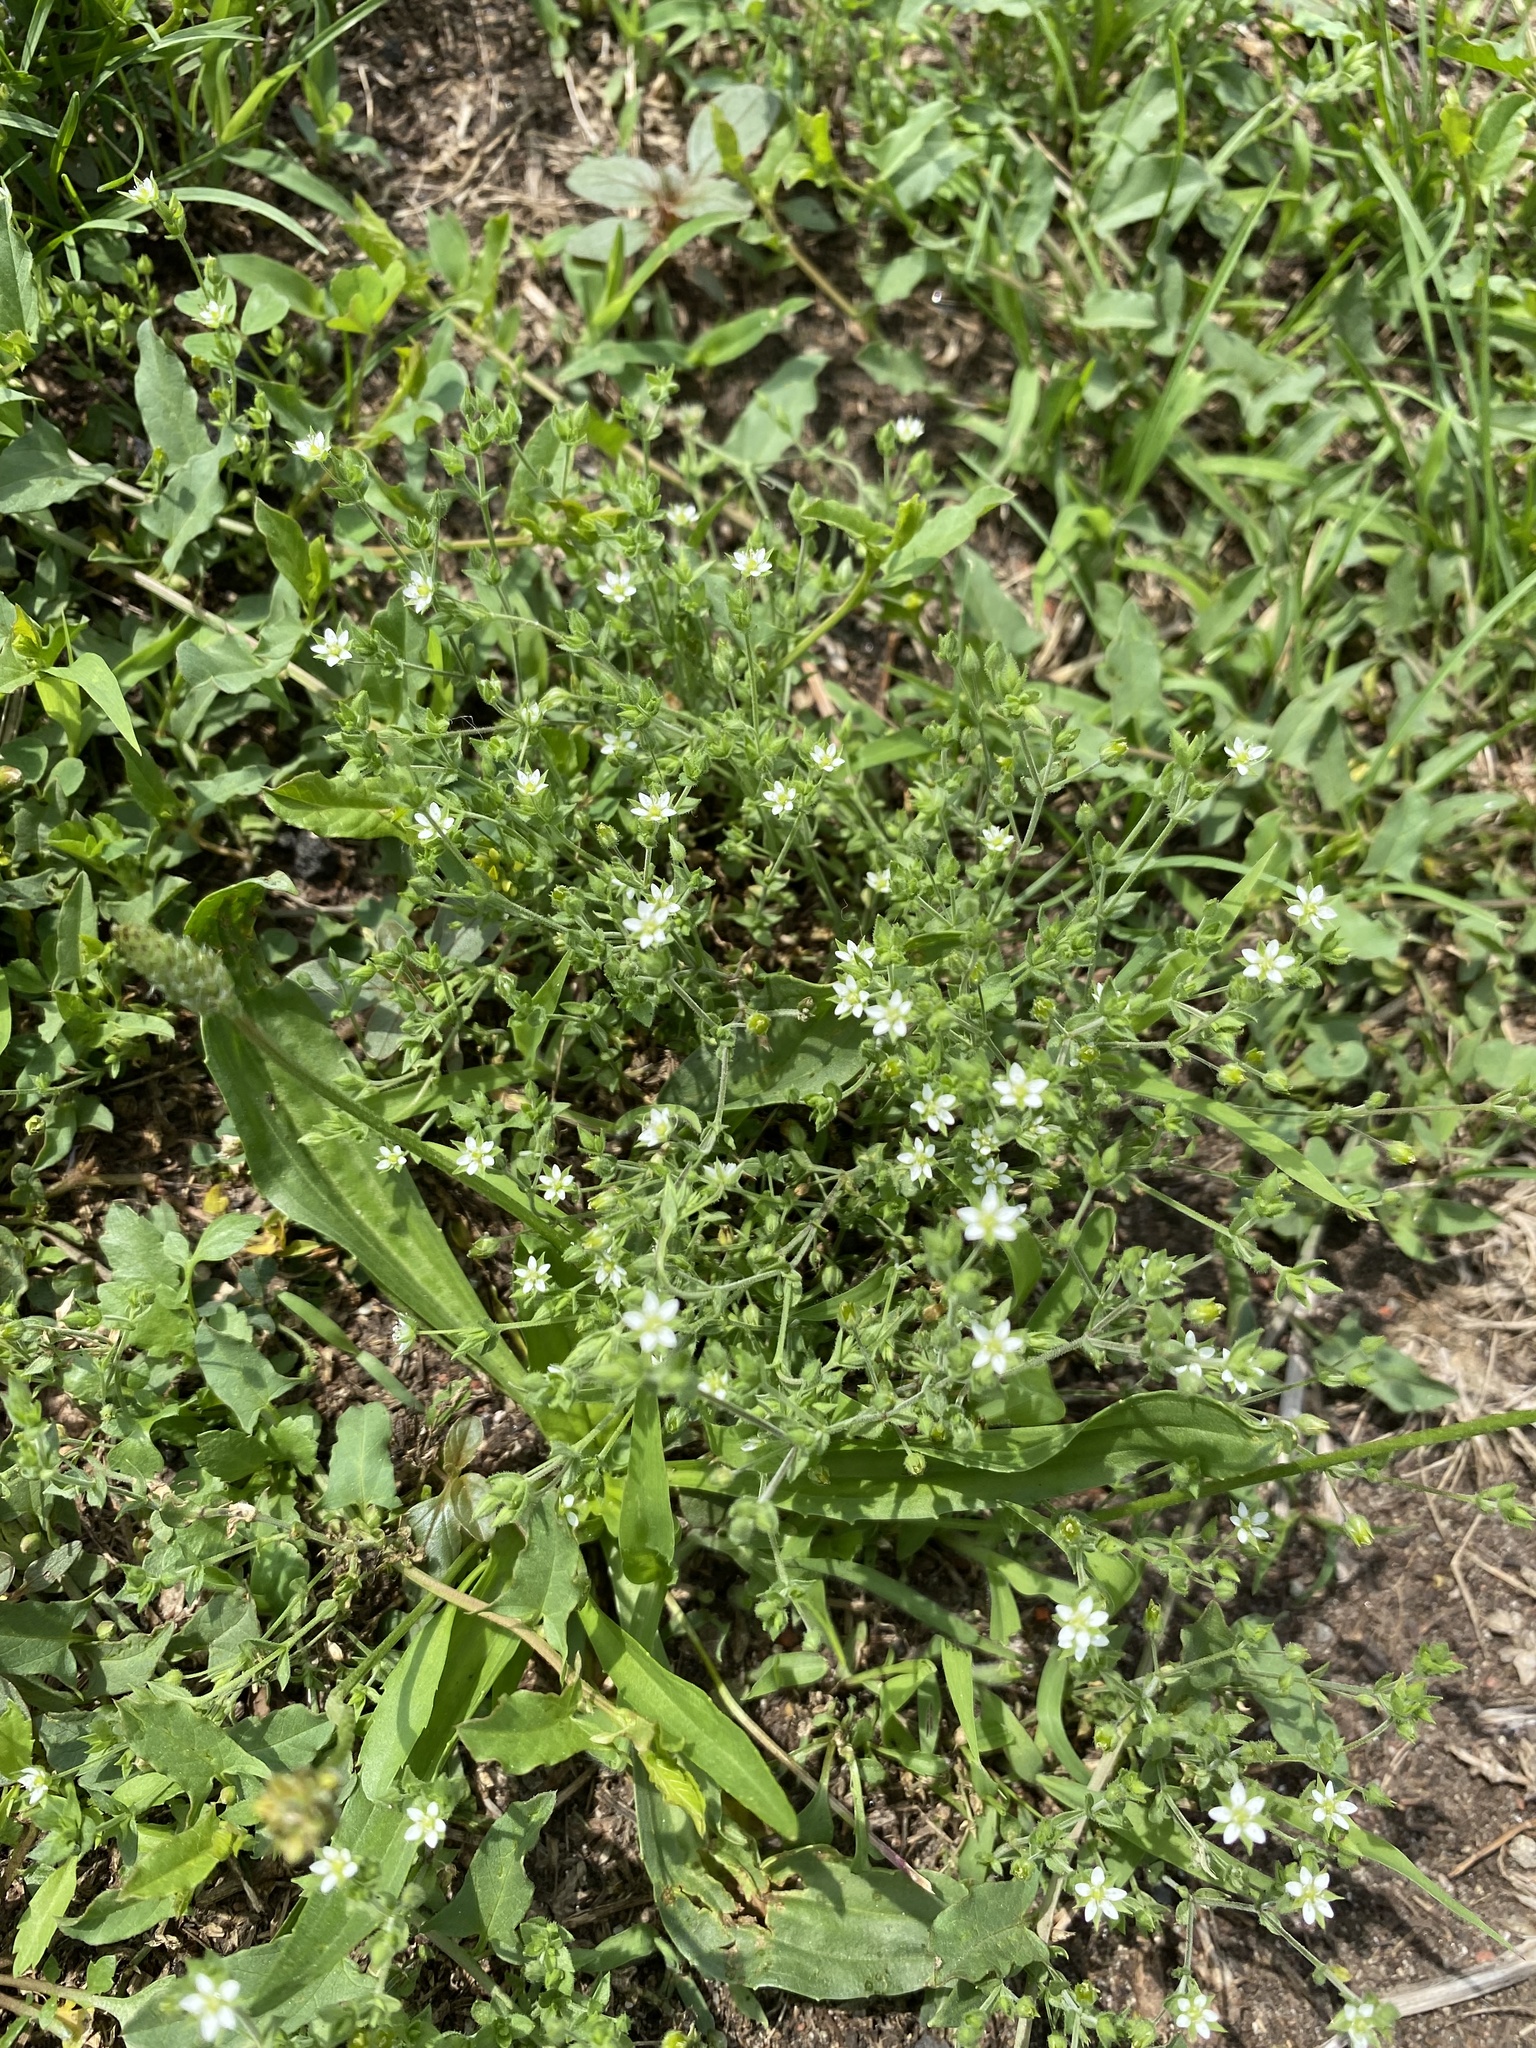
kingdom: Plantae
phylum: Tracheophyta
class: Magnoliopsida
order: Caryophyllales
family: Caryophyllaceae
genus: Arenaria
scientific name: Arenaria serpyllifolia
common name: Thyme-leaved sandwort
